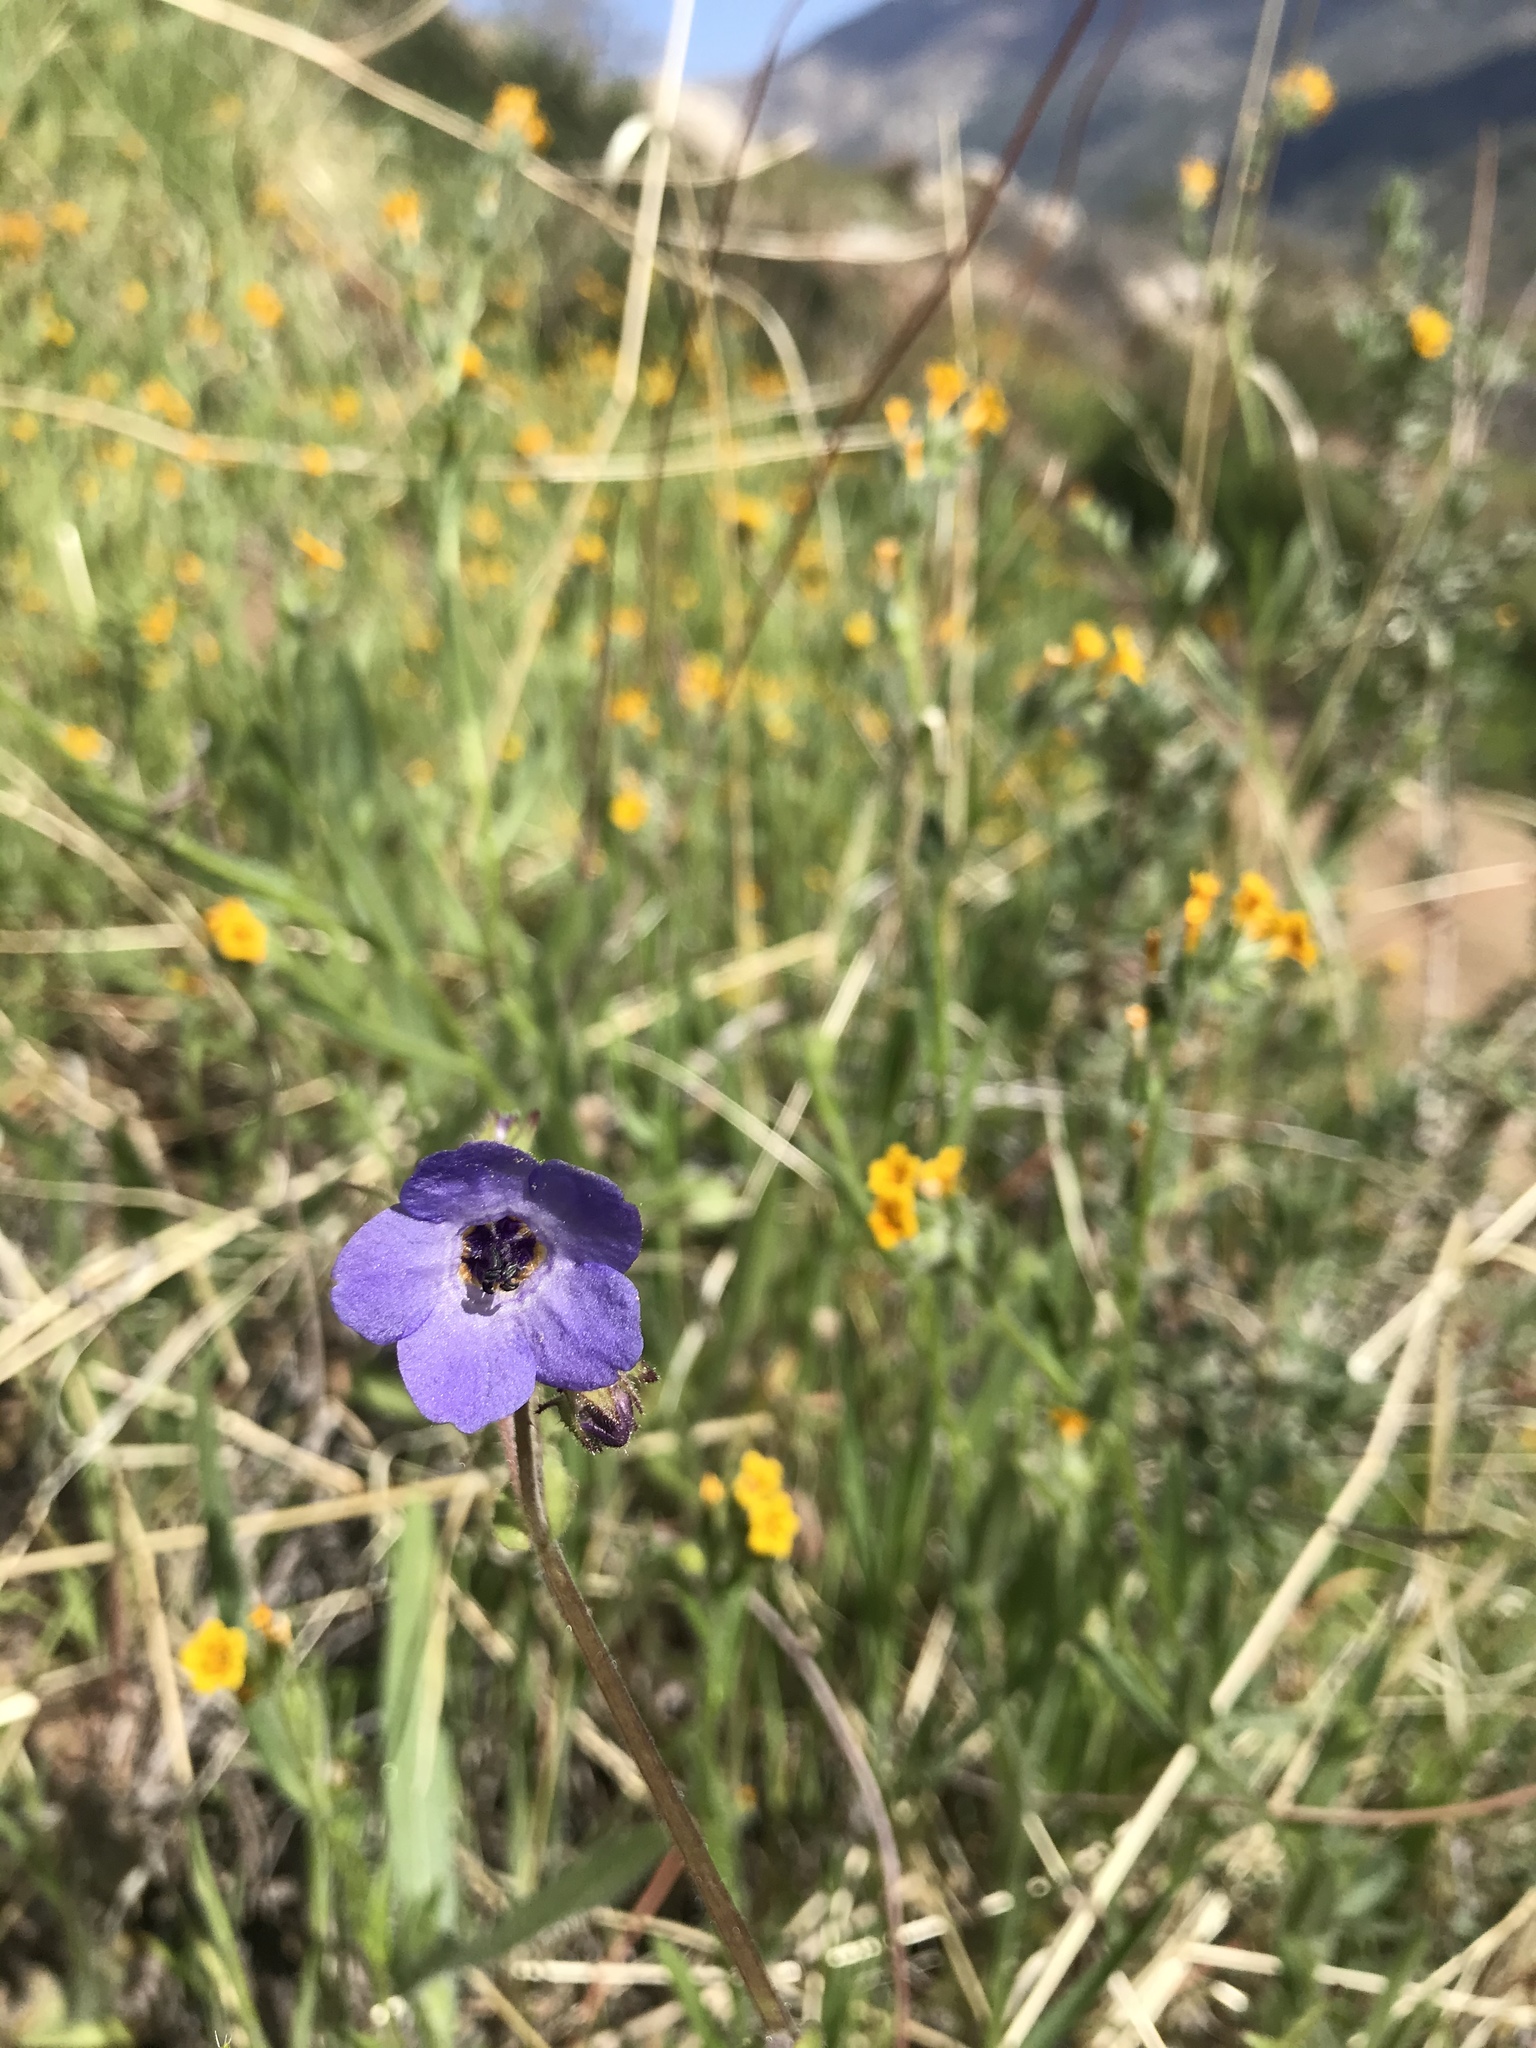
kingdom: Plantae
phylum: Tracheophyta
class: Magnoliopsida
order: Boraginales
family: Hydrophyllaceae
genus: Pholistoma
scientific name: Pholistoma auritum
